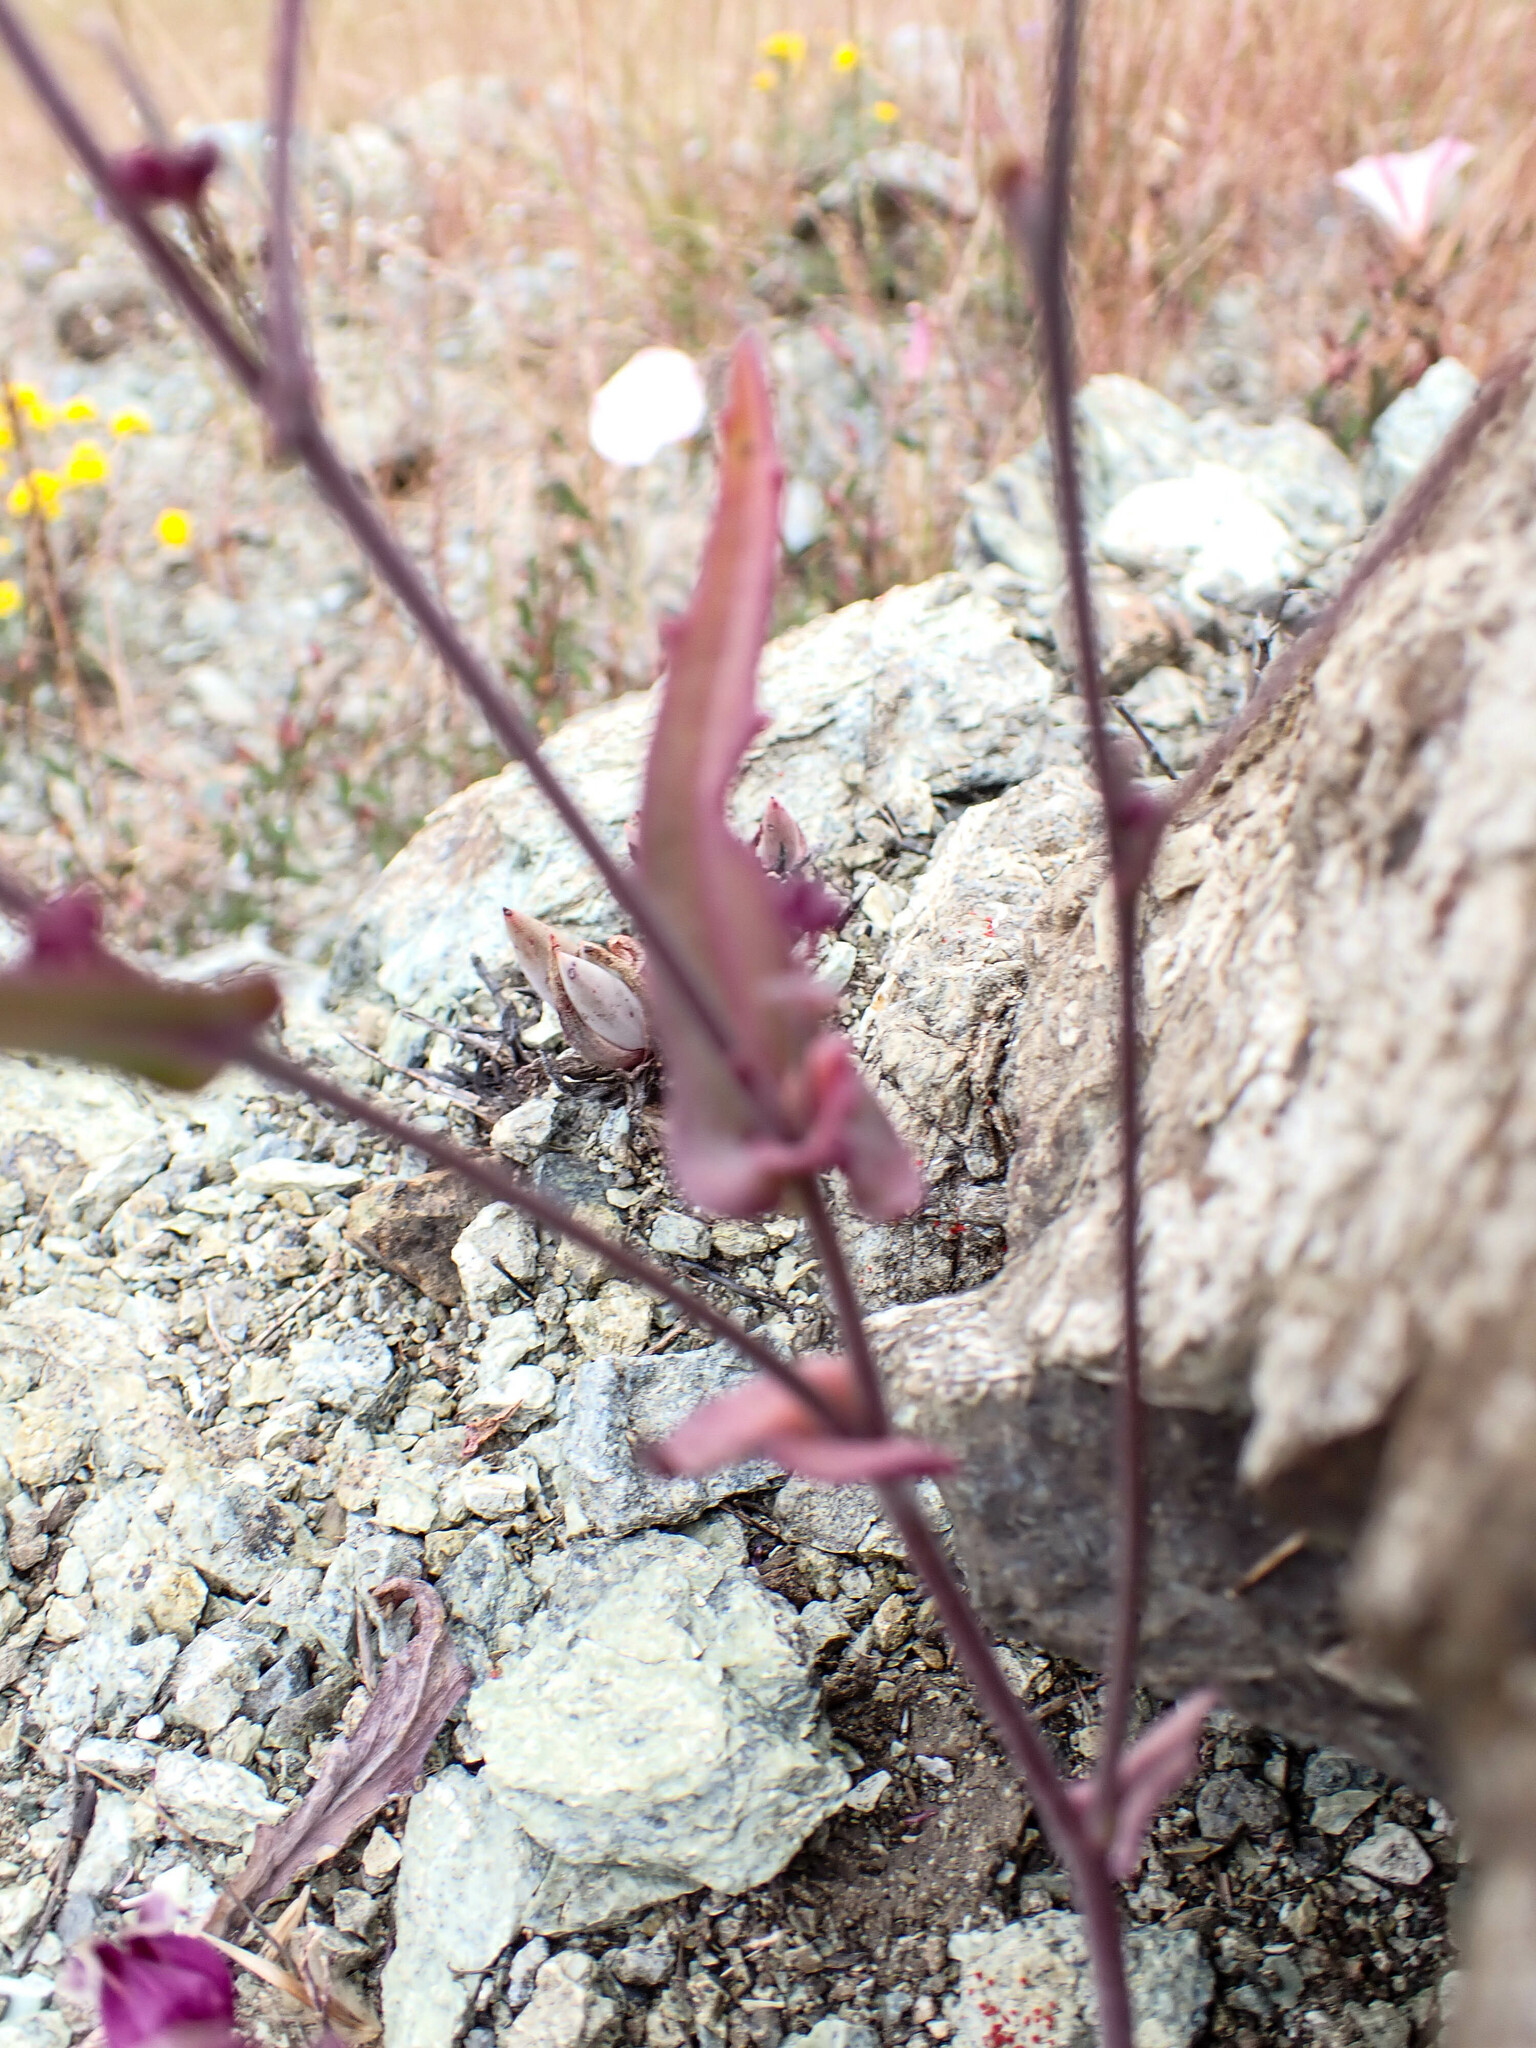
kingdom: Plantae
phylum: Tracheophyta
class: Magnoliopsida
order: Brassicales
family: Brassicaceae
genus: Streptanthus
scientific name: Streptanthus glandulosus
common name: Jewel-flower
